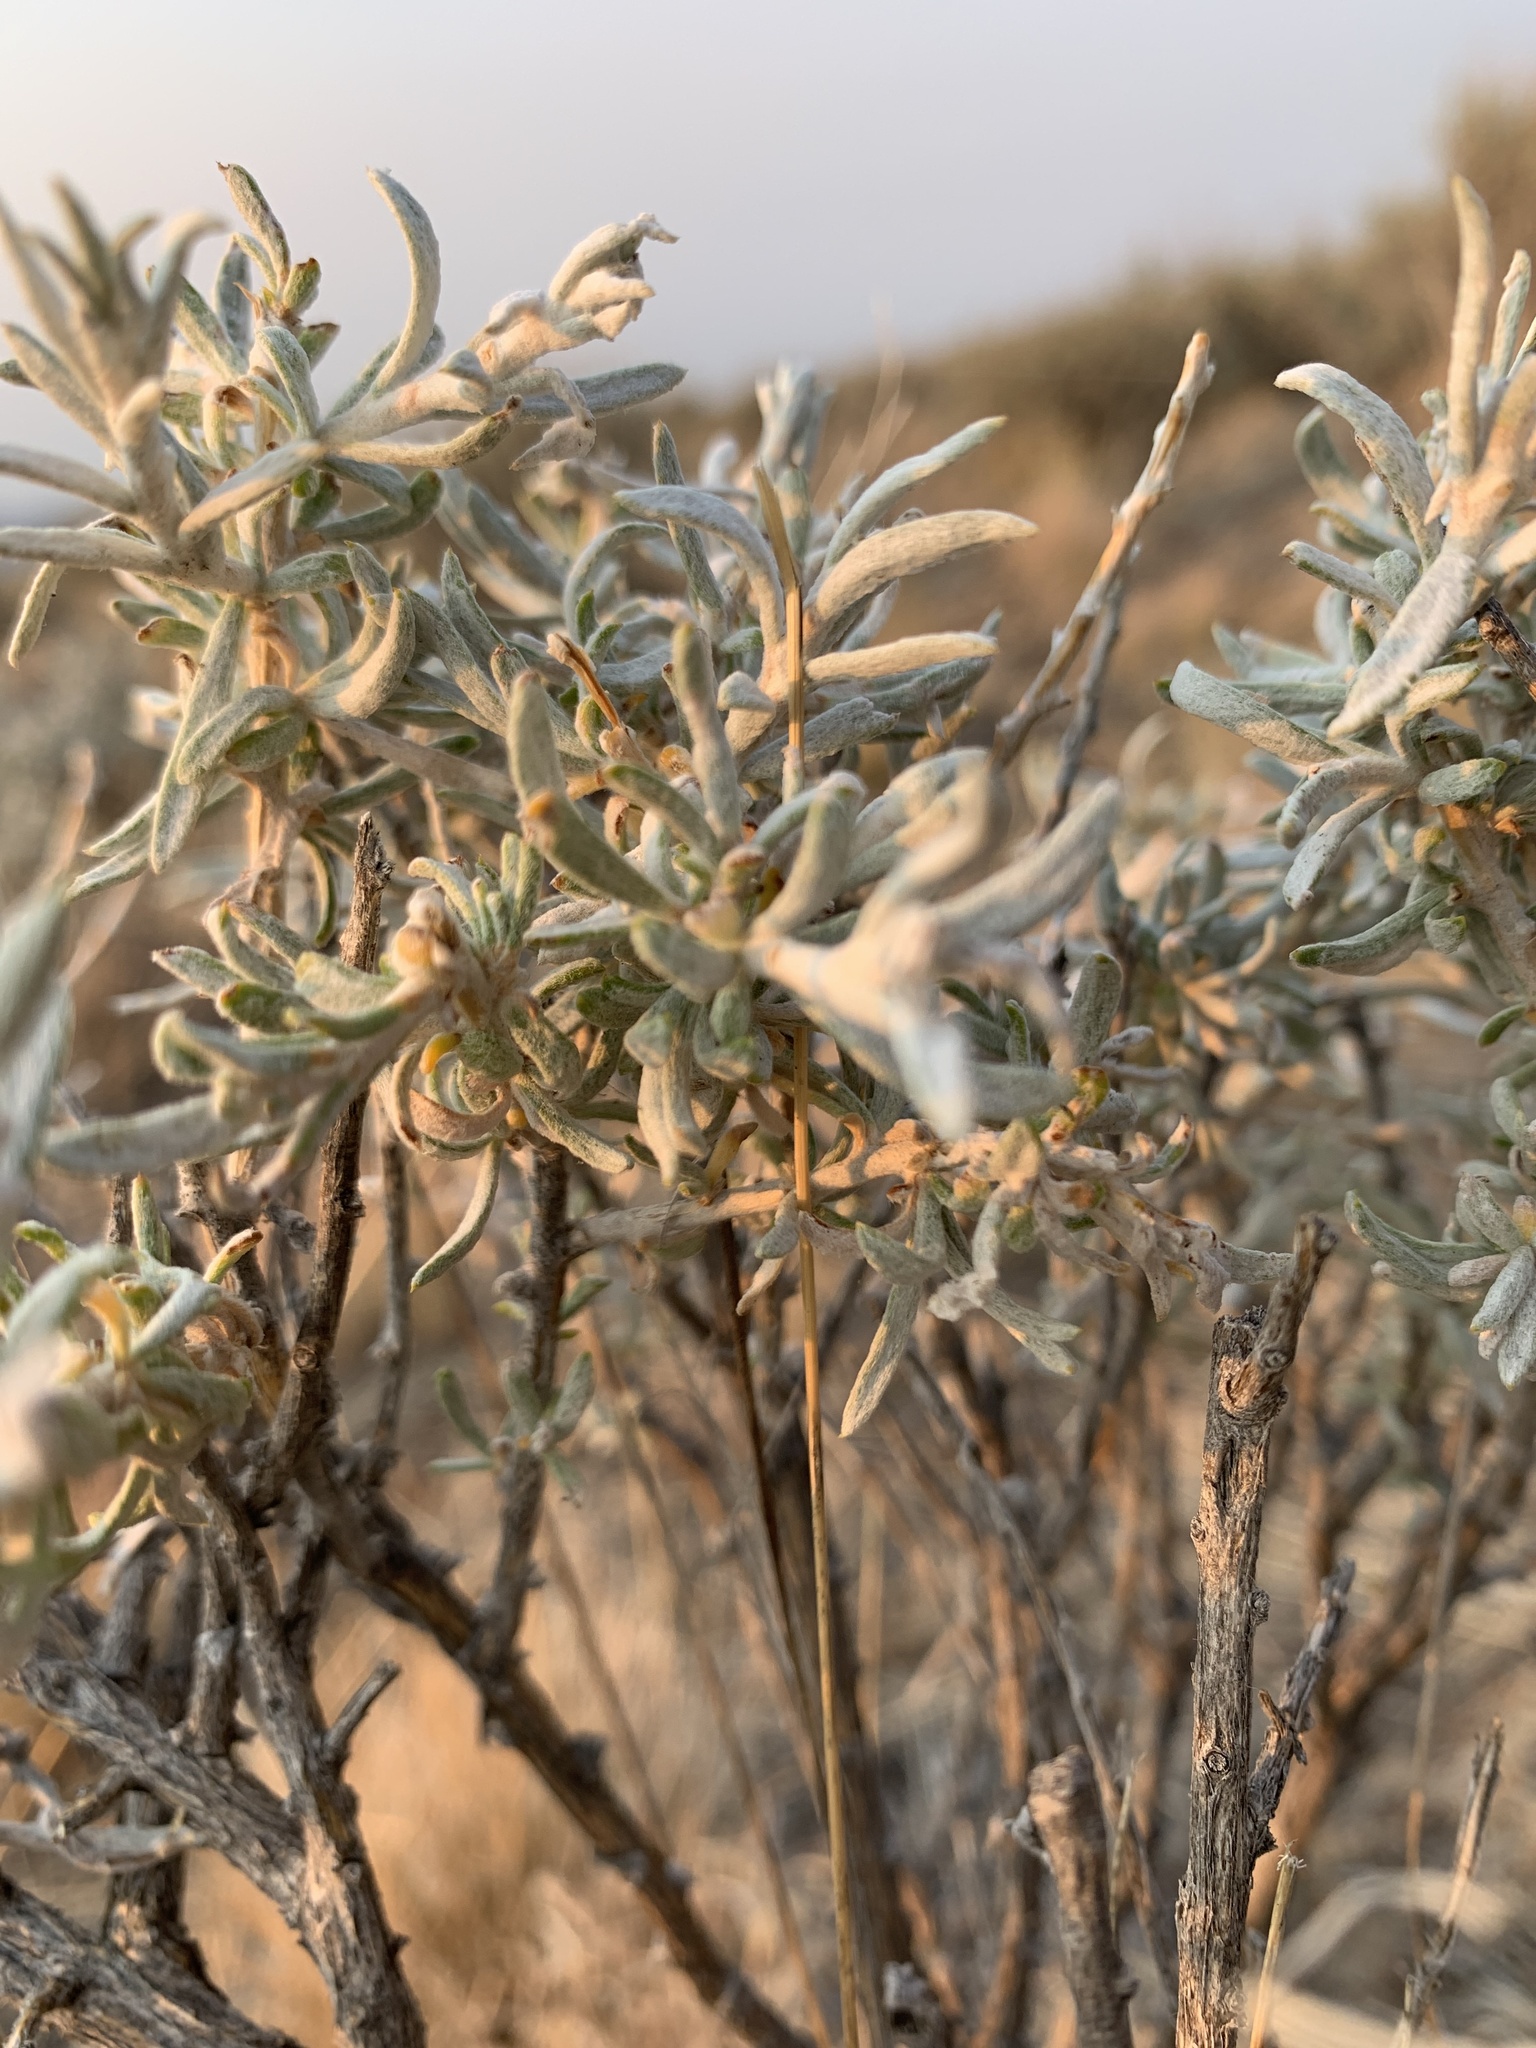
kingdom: Plantae
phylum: Tracheophyta
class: Magnoliopsida
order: Asterales
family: Asteraceae
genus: Tetradymia
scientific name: Tetradymia canescens
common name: Spineless horsebrush
